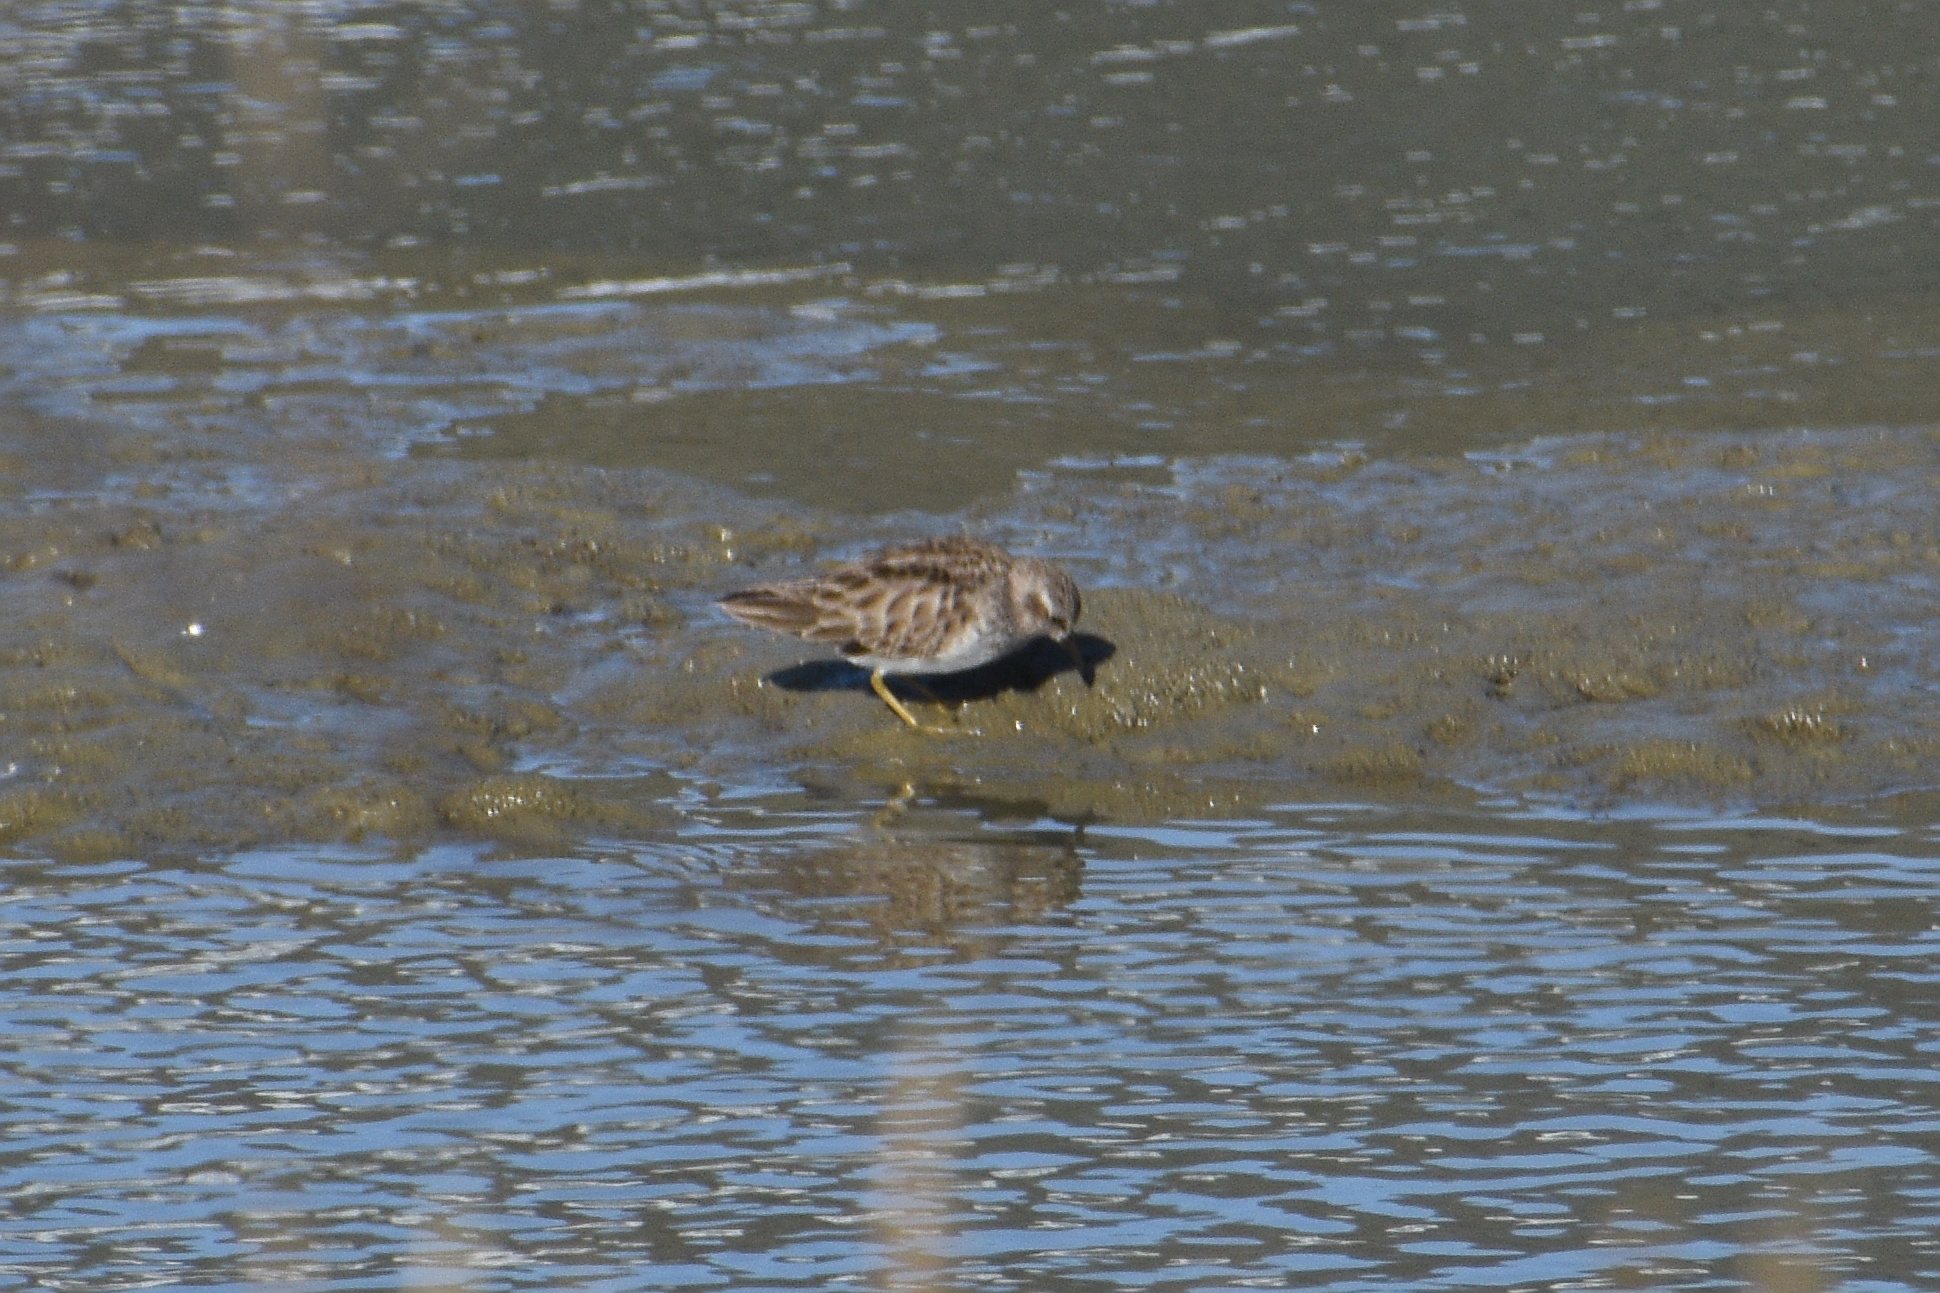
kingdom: Animalia
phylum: Chordata
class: Aves
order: Charadriiformes
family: Scolopacidae
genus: Calidris
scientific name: Calidris minutilla
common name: Least sandpiper
